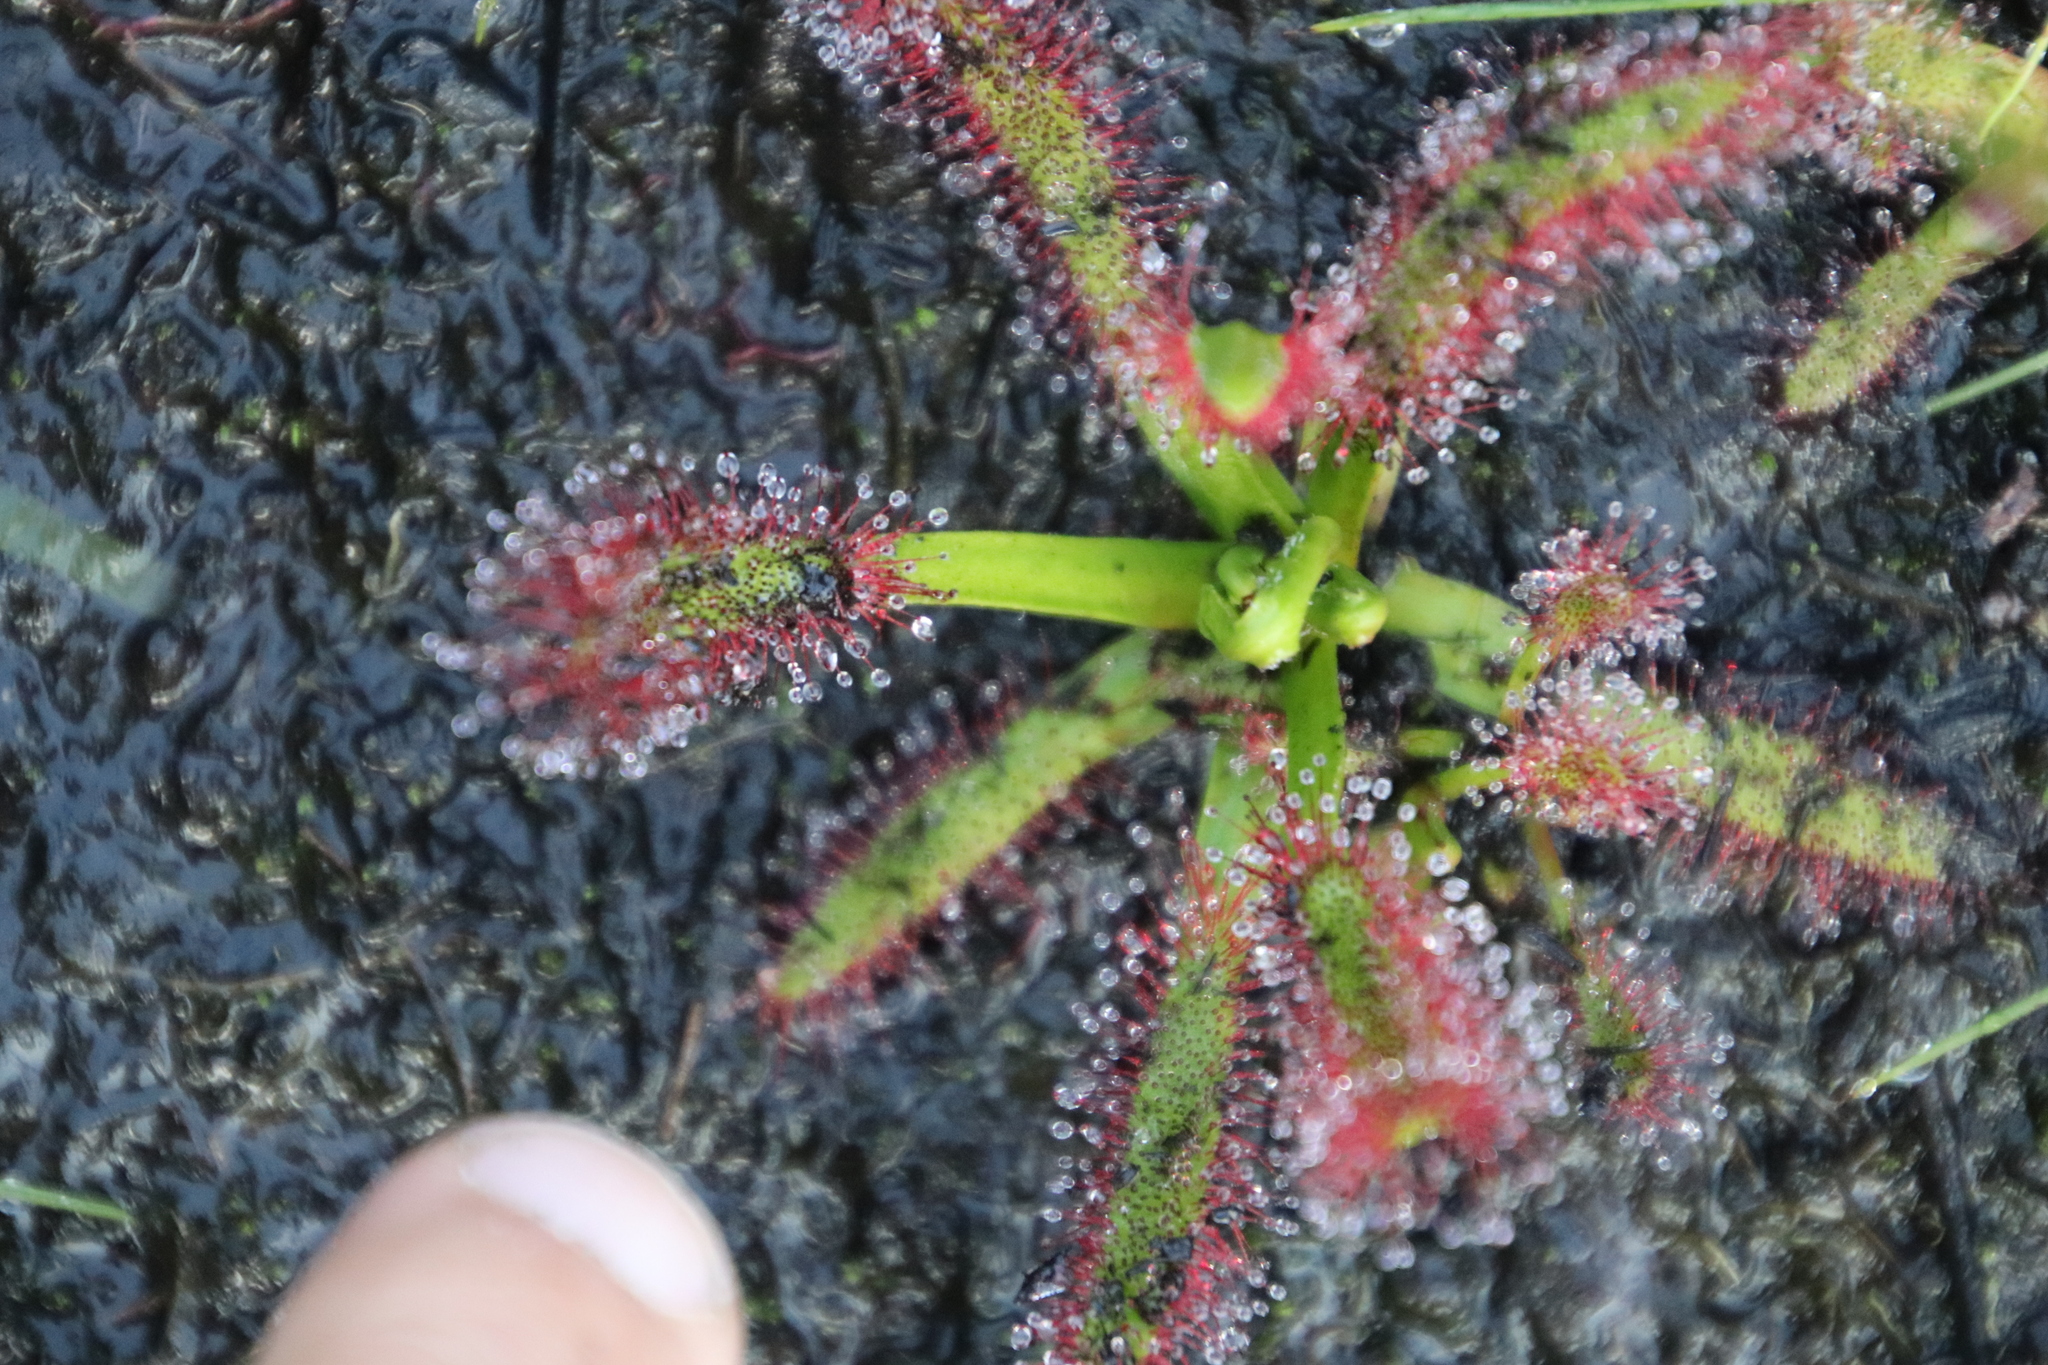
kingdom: Plantae
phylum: Tracheophyta
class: Magnoliopsida
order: Caryophyllales
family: Droseraceae
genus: Drosera
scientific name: Drosera capensis
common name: Cape sundew
